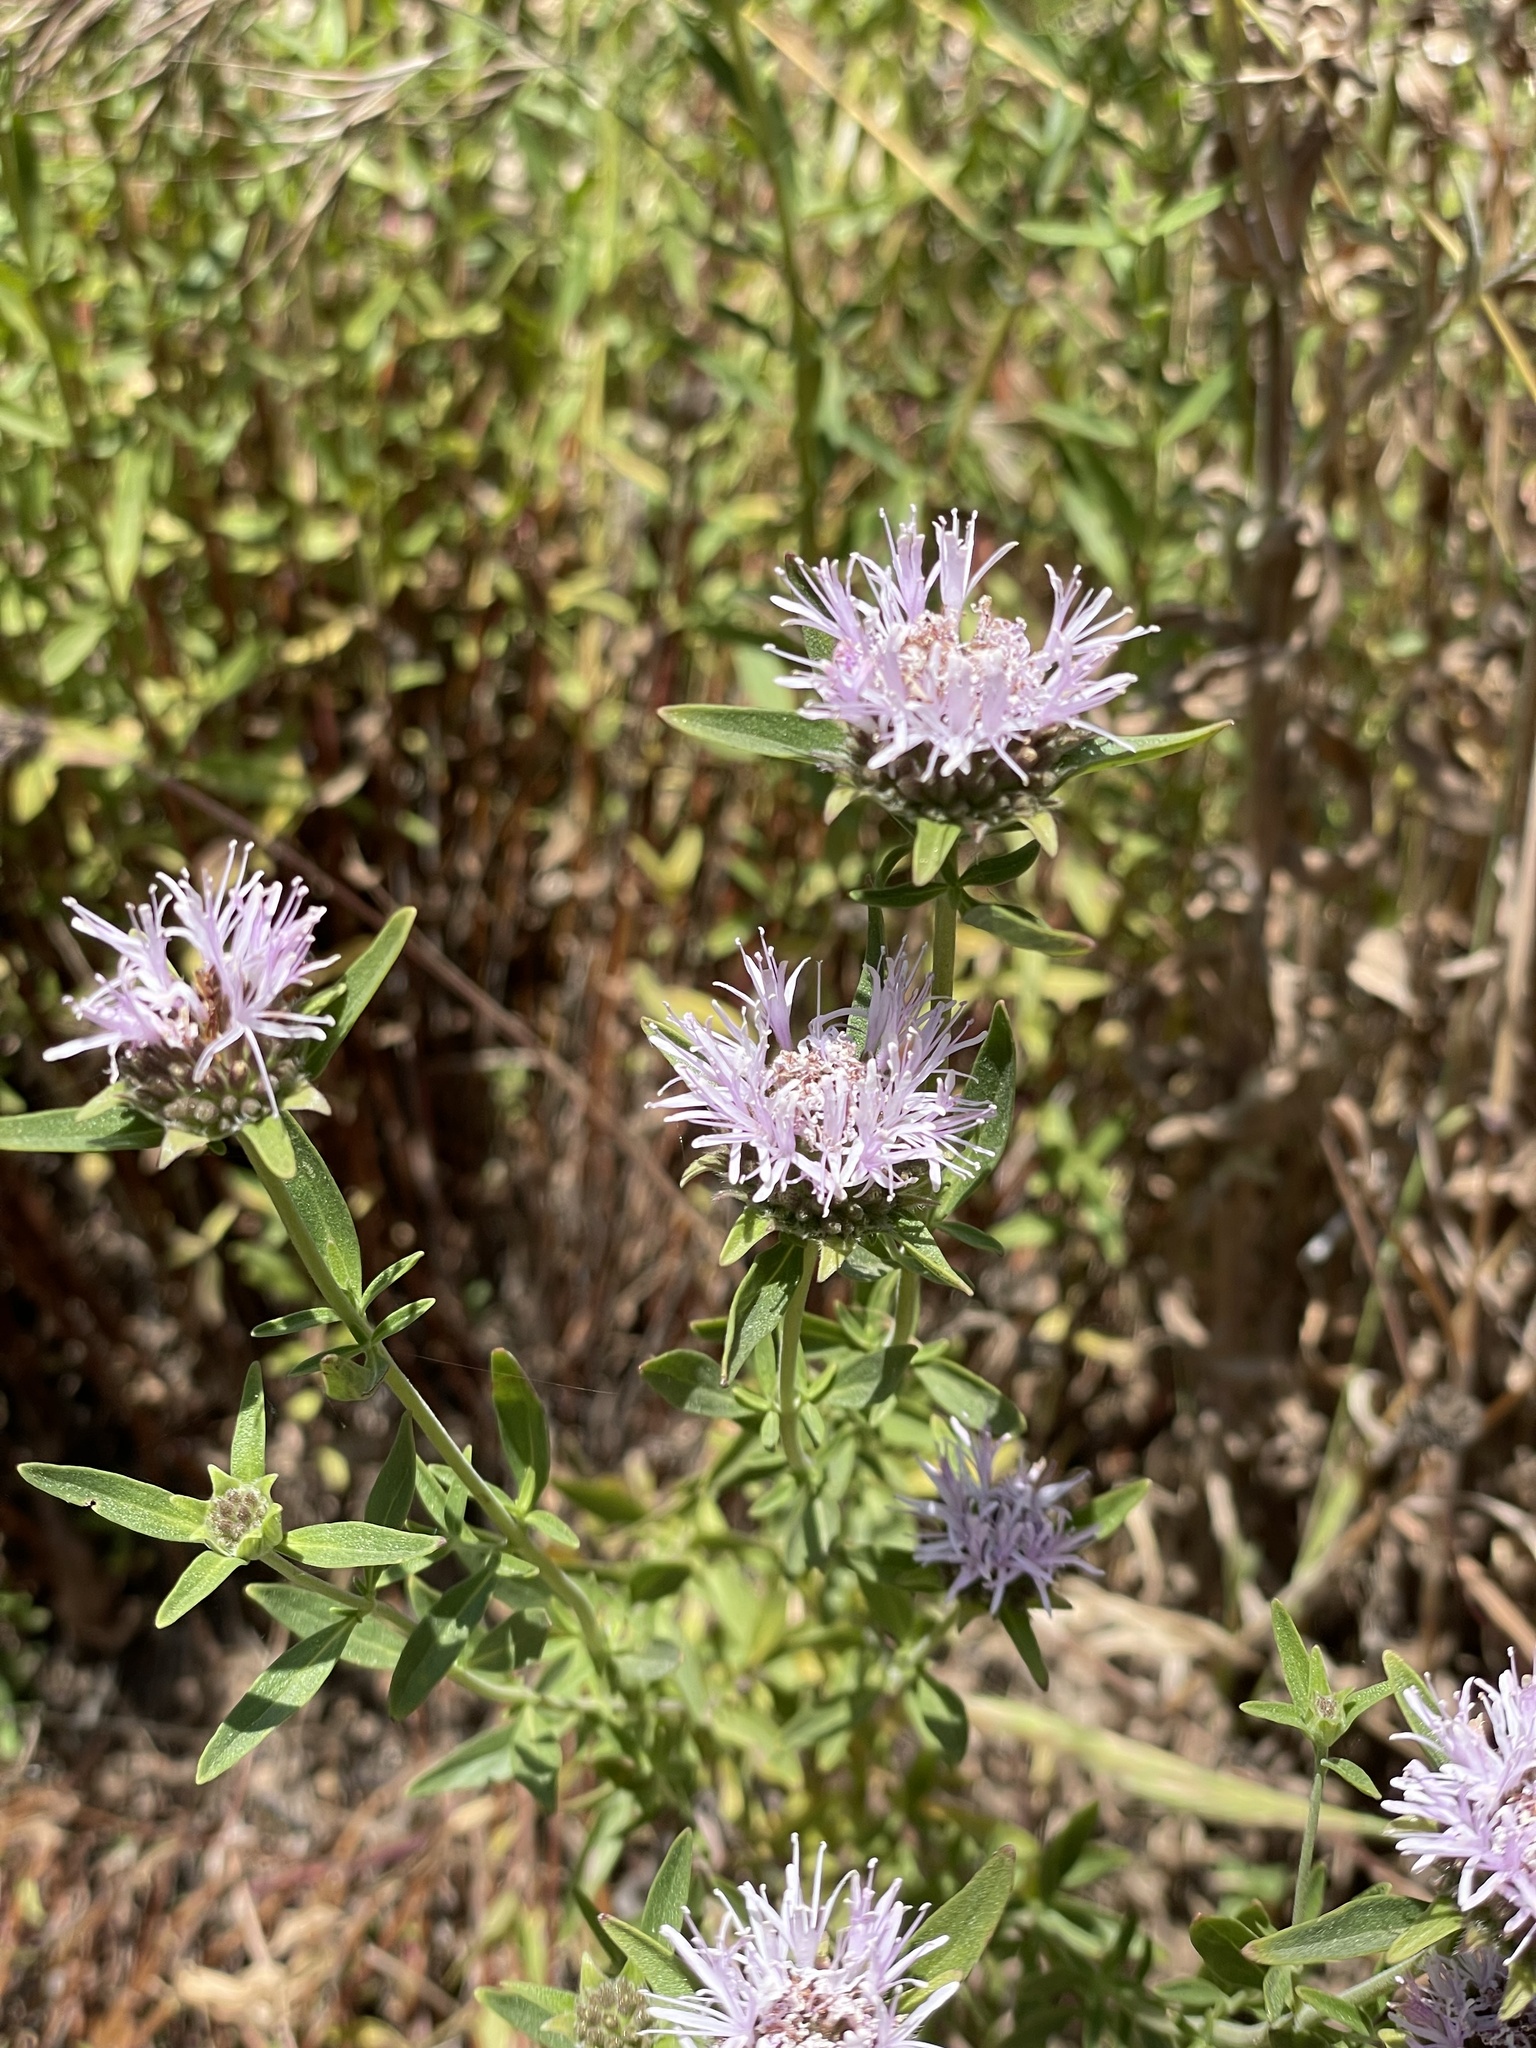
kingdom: Plantae
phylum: Tracheophyta
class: Magnoliopsida
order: Lamiales
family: Lamiaceae
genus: Monardella
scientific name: Monardella stoneana
